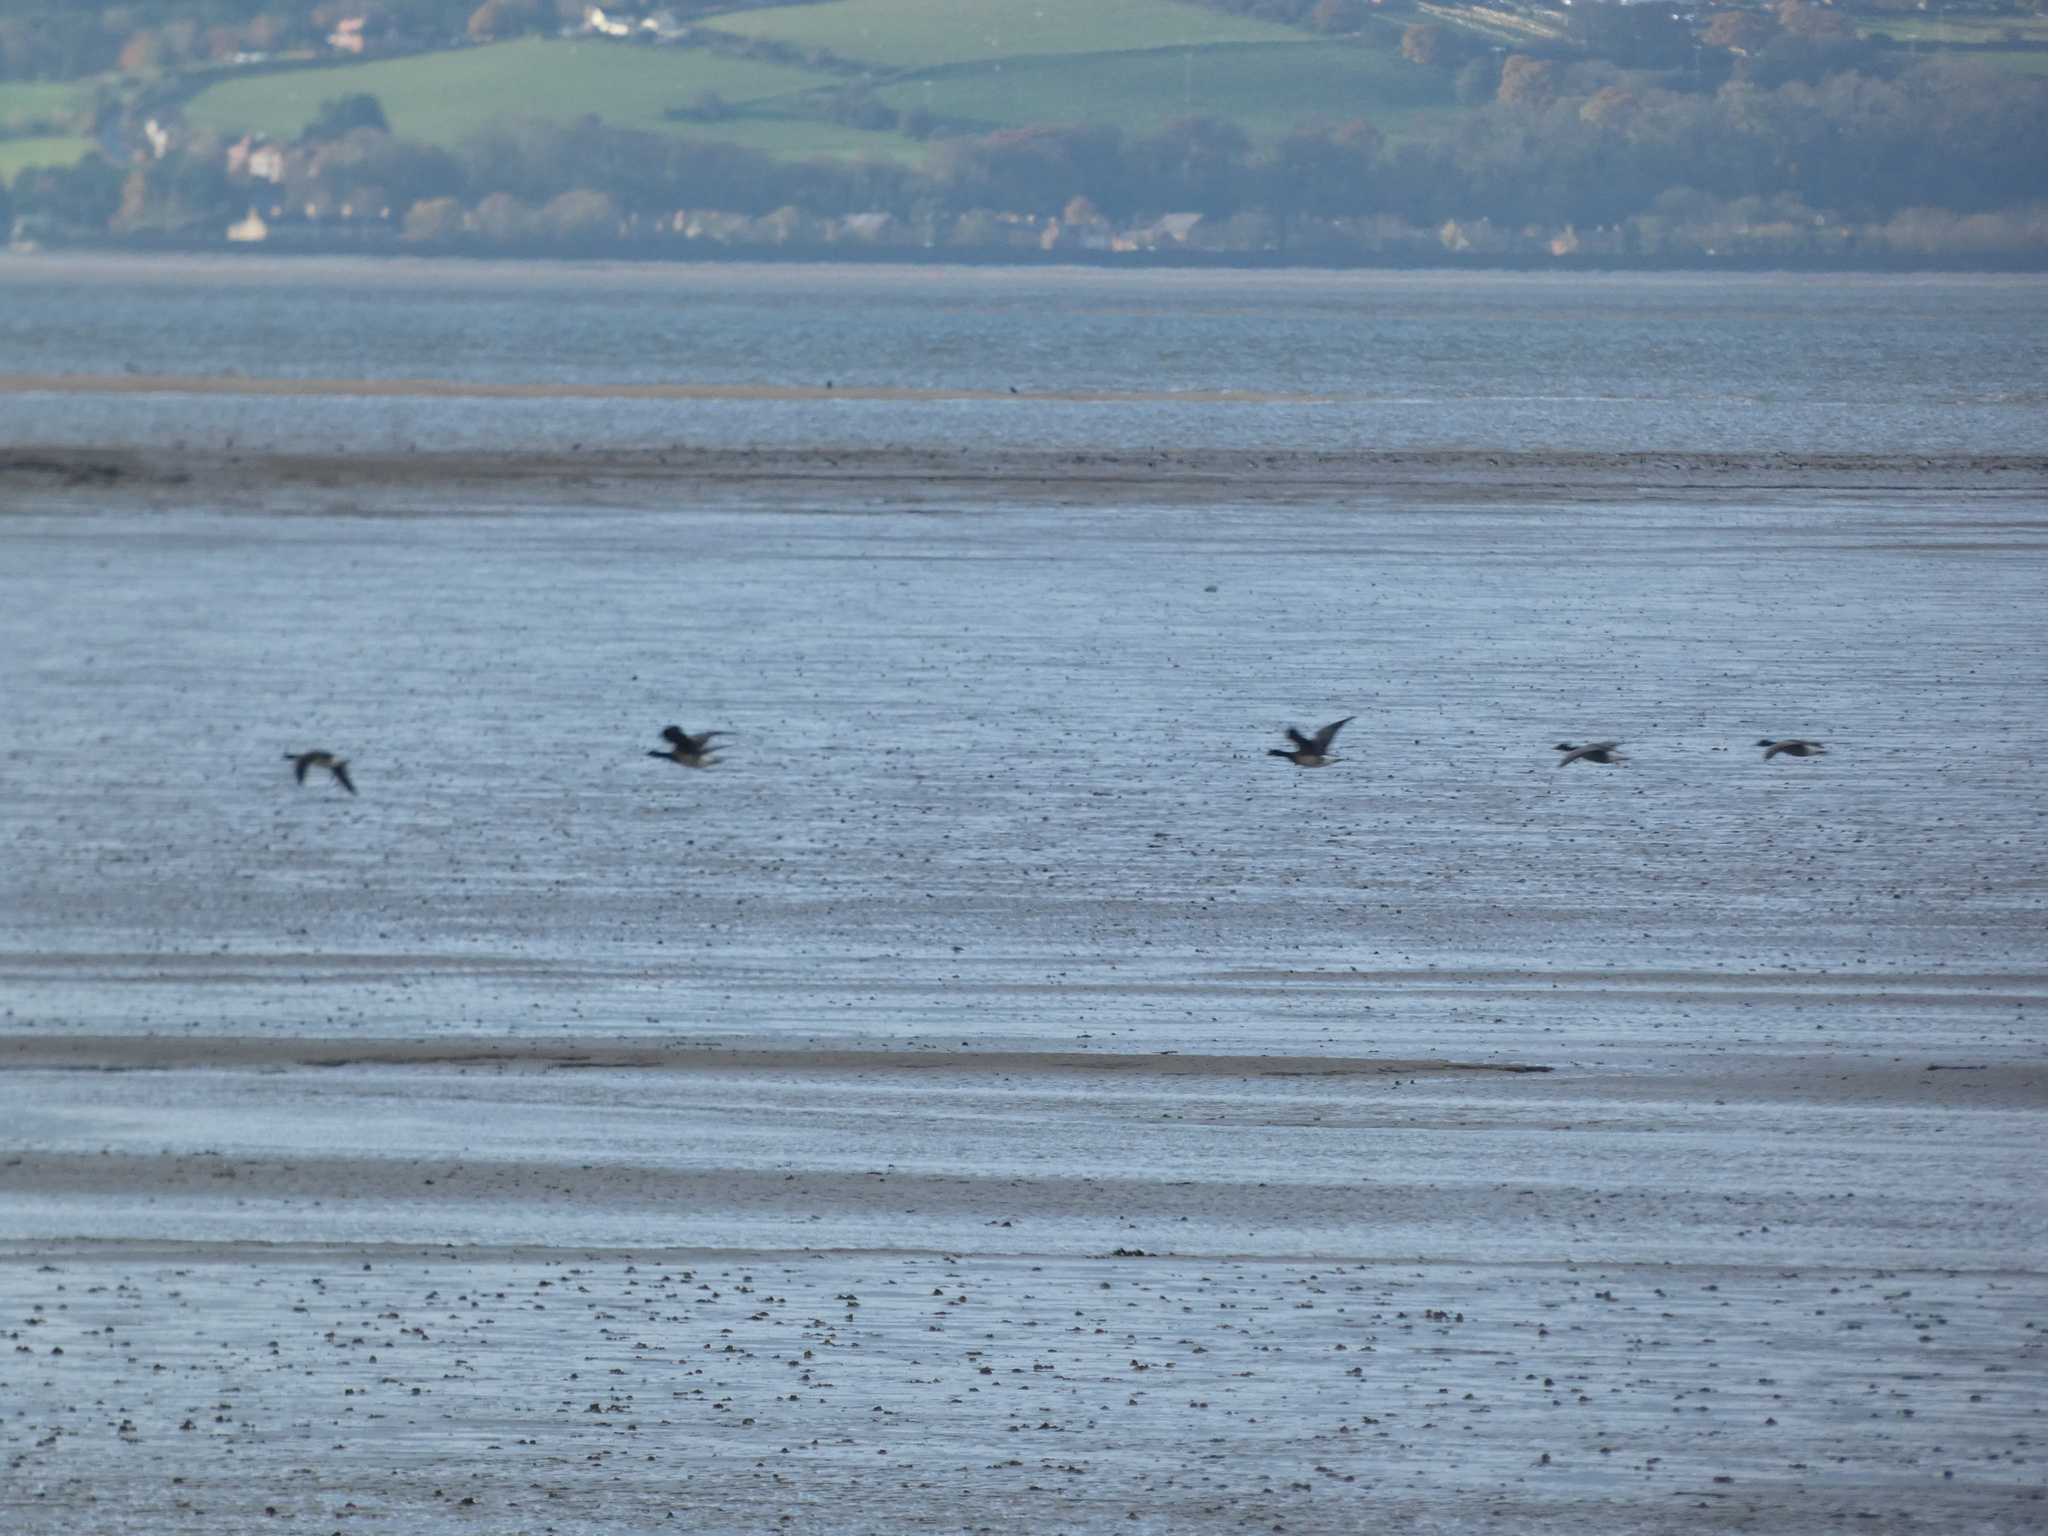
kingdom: Animalia
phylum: Chordata
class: Aves
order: Anseriformes
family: Anatidae
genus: Branta
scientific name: Branta bernicla
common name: Brant goose
